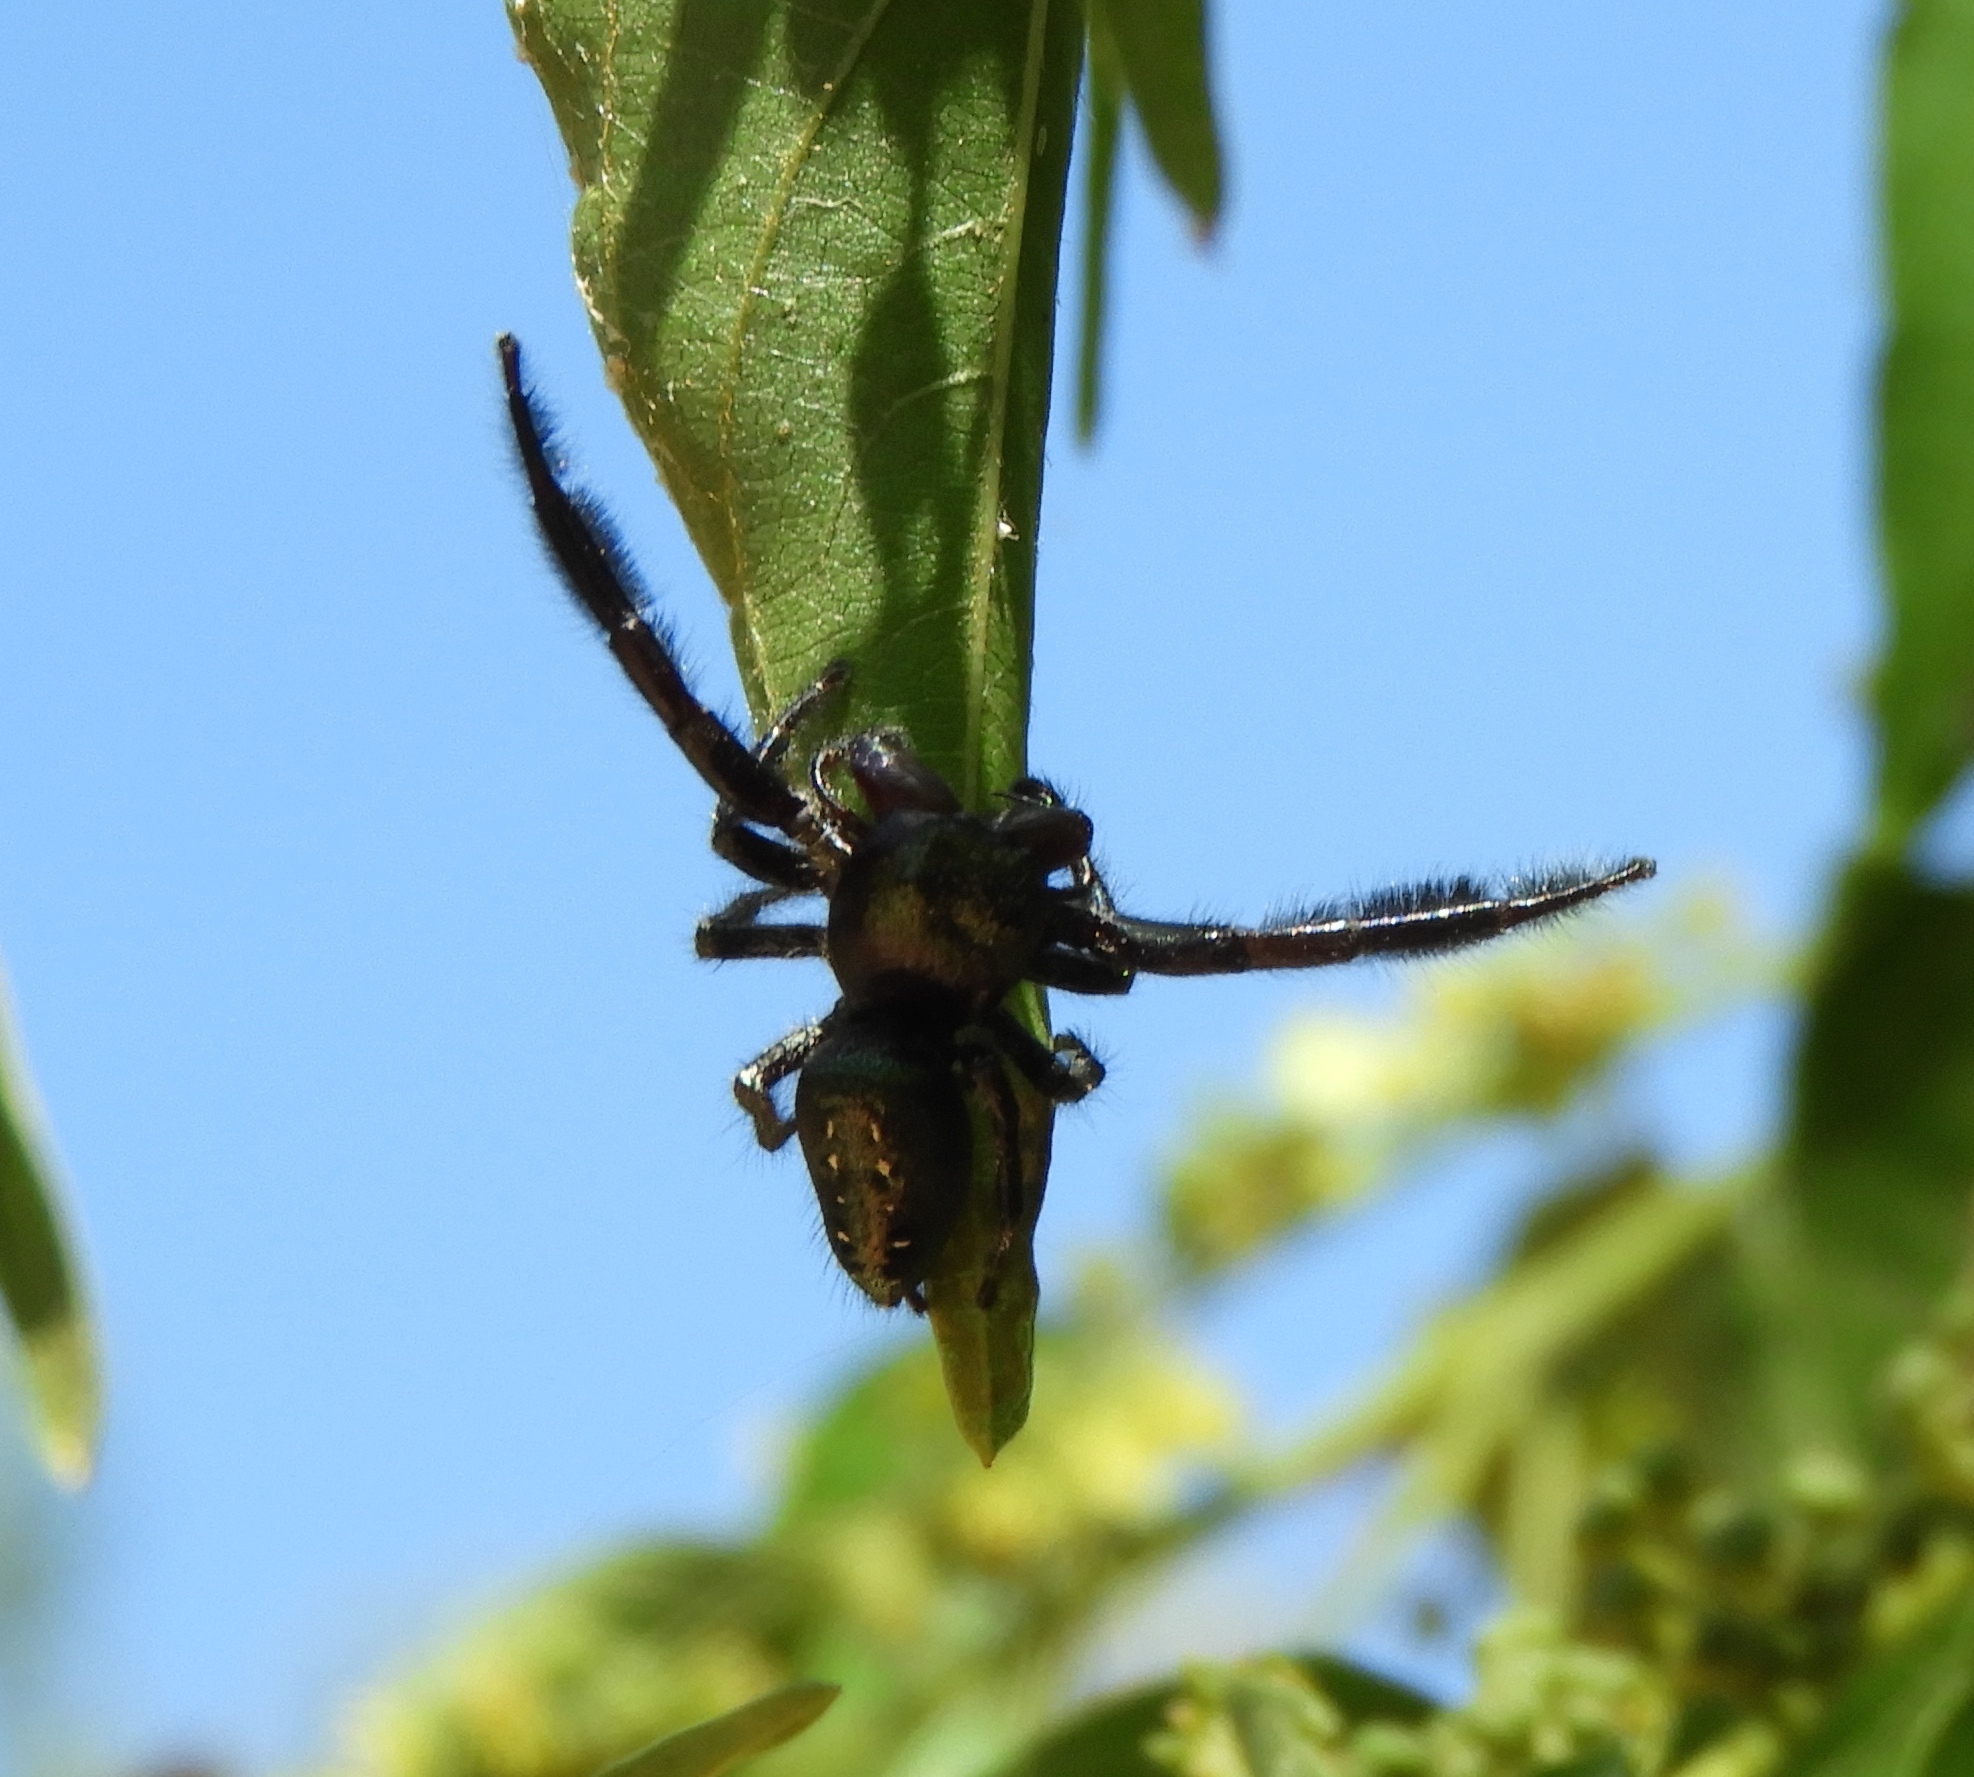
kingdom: Animalia
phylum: Arthropoda
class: Arachnida
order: Araneae
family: Salticidae
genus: Paraphidippus
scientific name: Paraphidippus fartilis
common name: Jumping spiders
